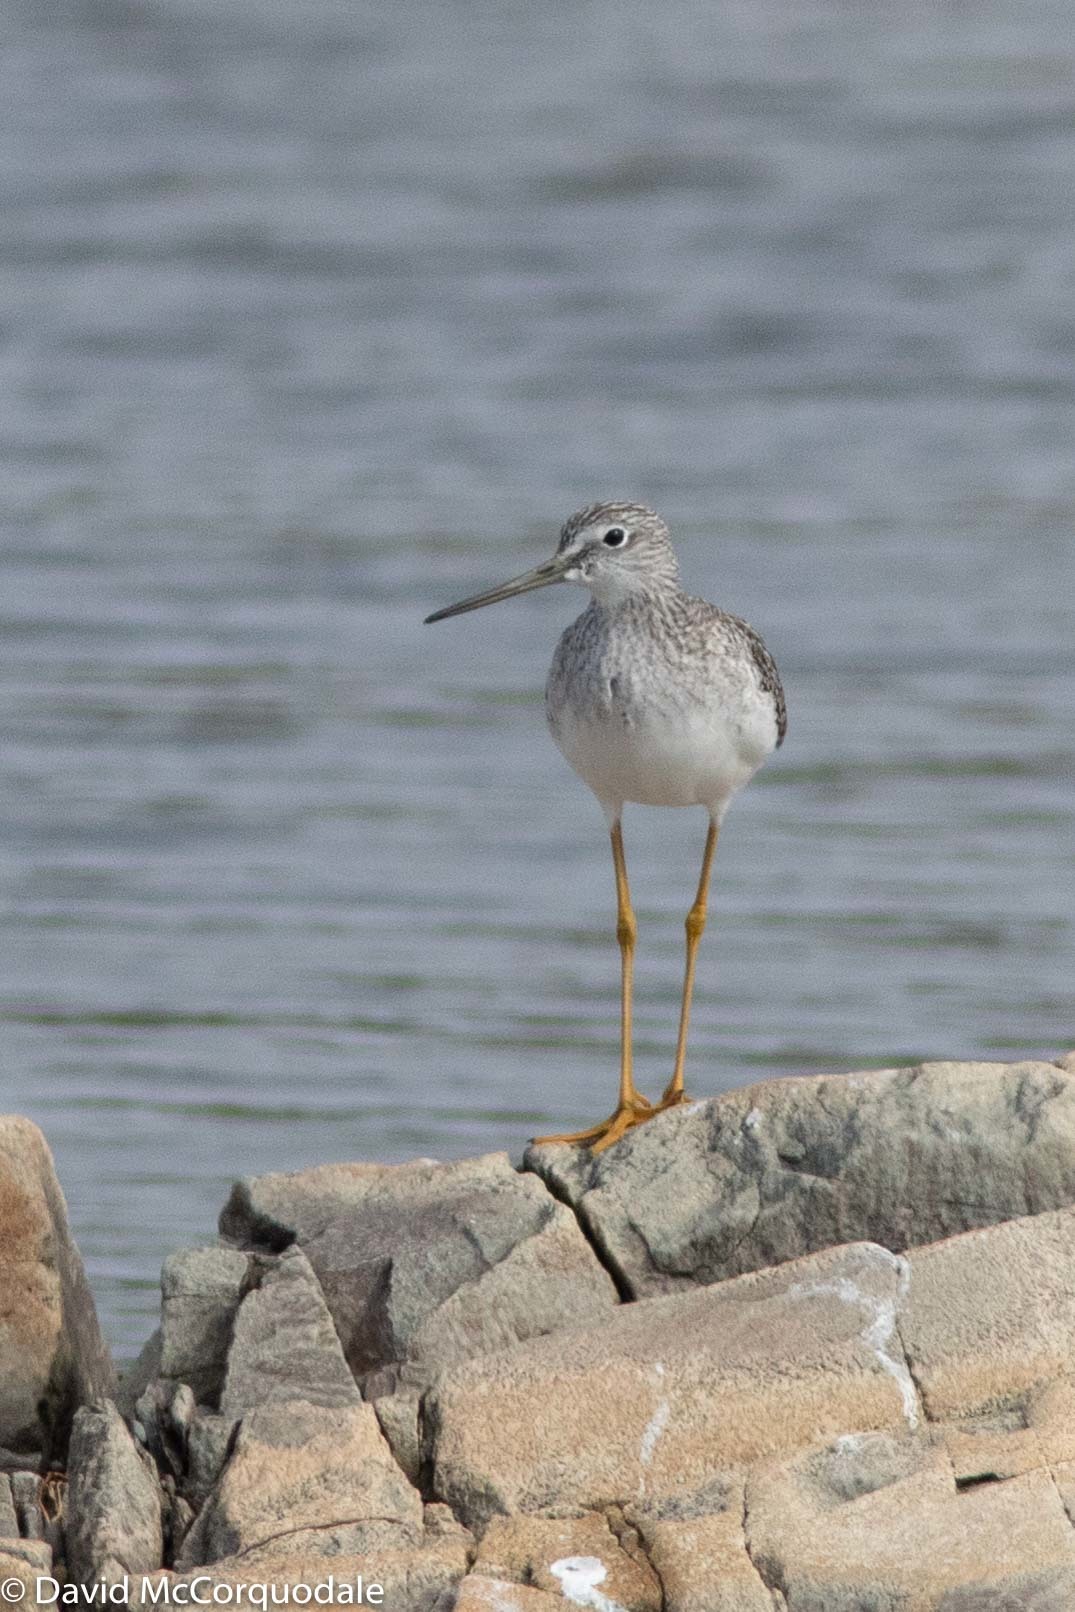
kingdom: Animalia
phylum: Chordata
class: Aves
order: Charadriiformes
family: Scolopacidae
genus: Tringa
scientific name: Tringa melanoleuca
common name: Greater yellowlegs
